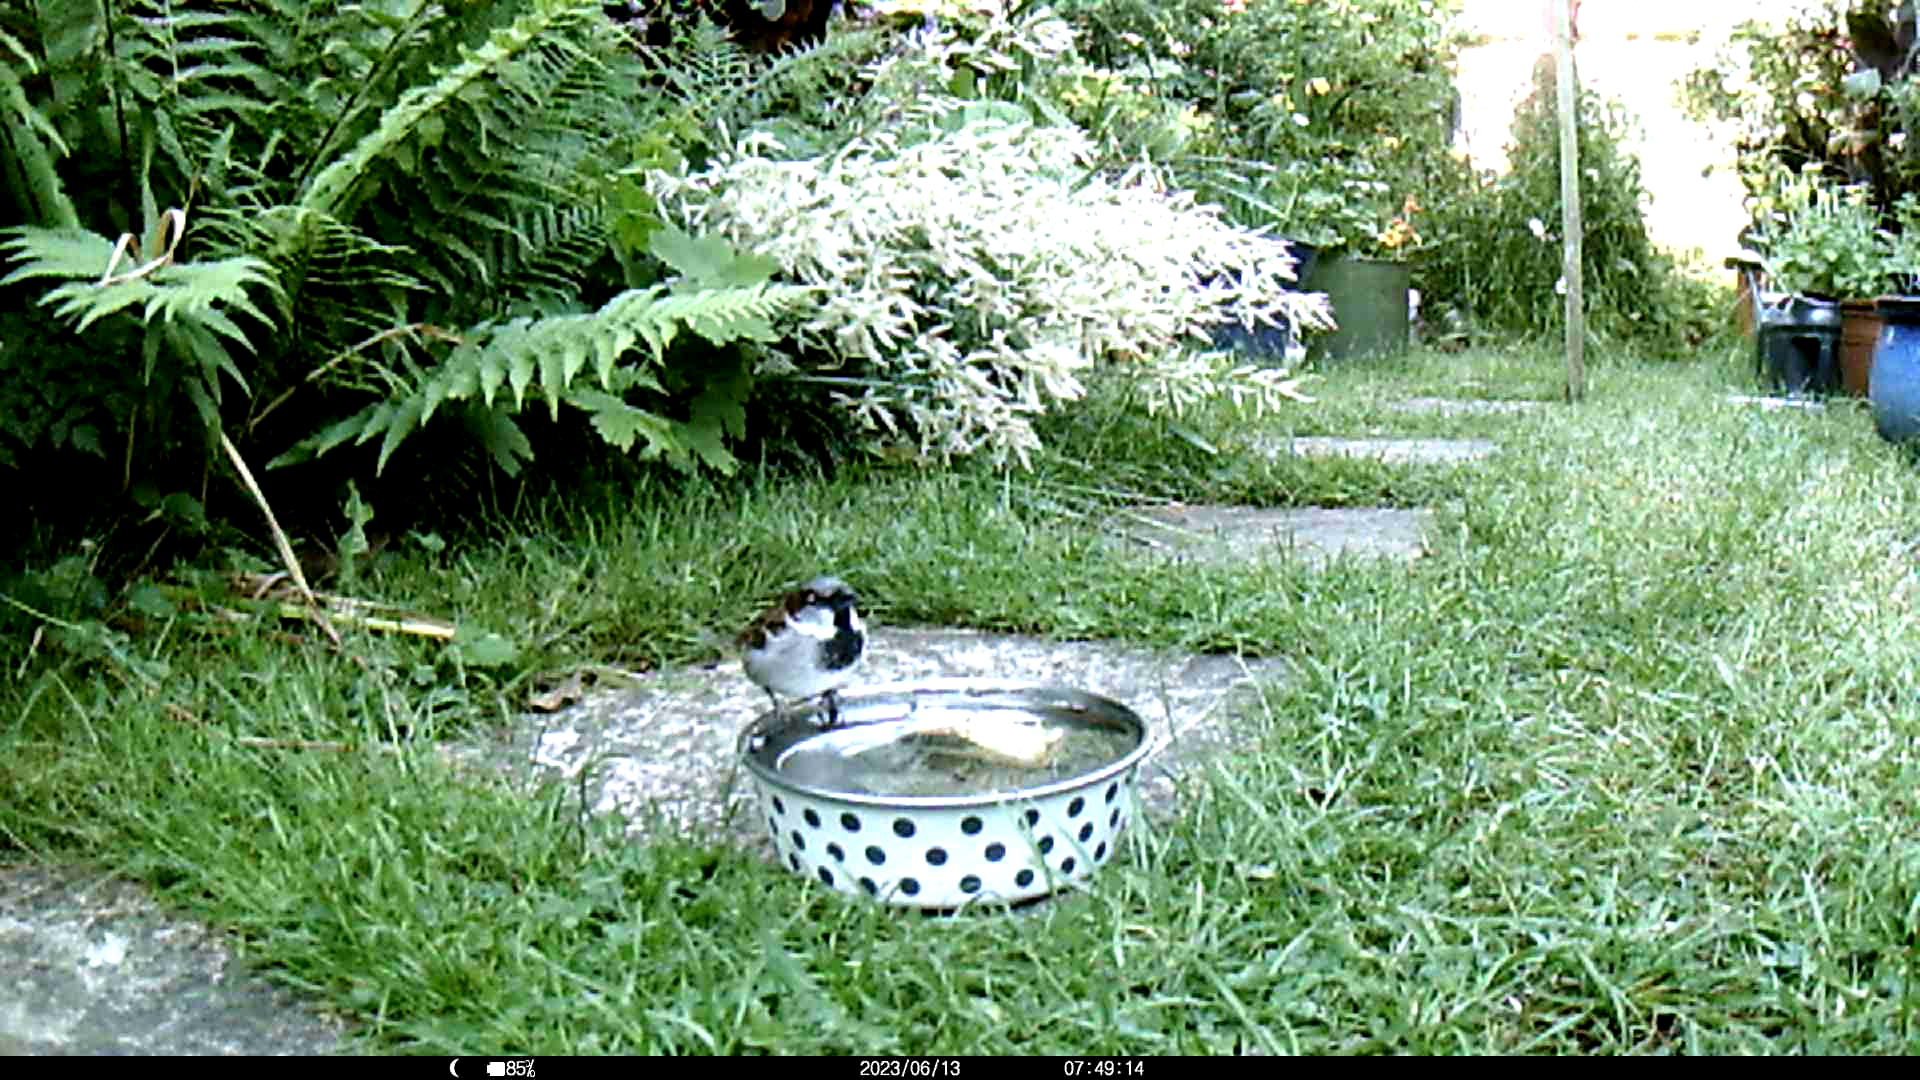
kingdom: Animalia
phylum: Chordata
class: Aves
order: Passeriformes
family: Passeridae
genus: Passer
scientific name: Passer domesticus
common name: House sparrow
